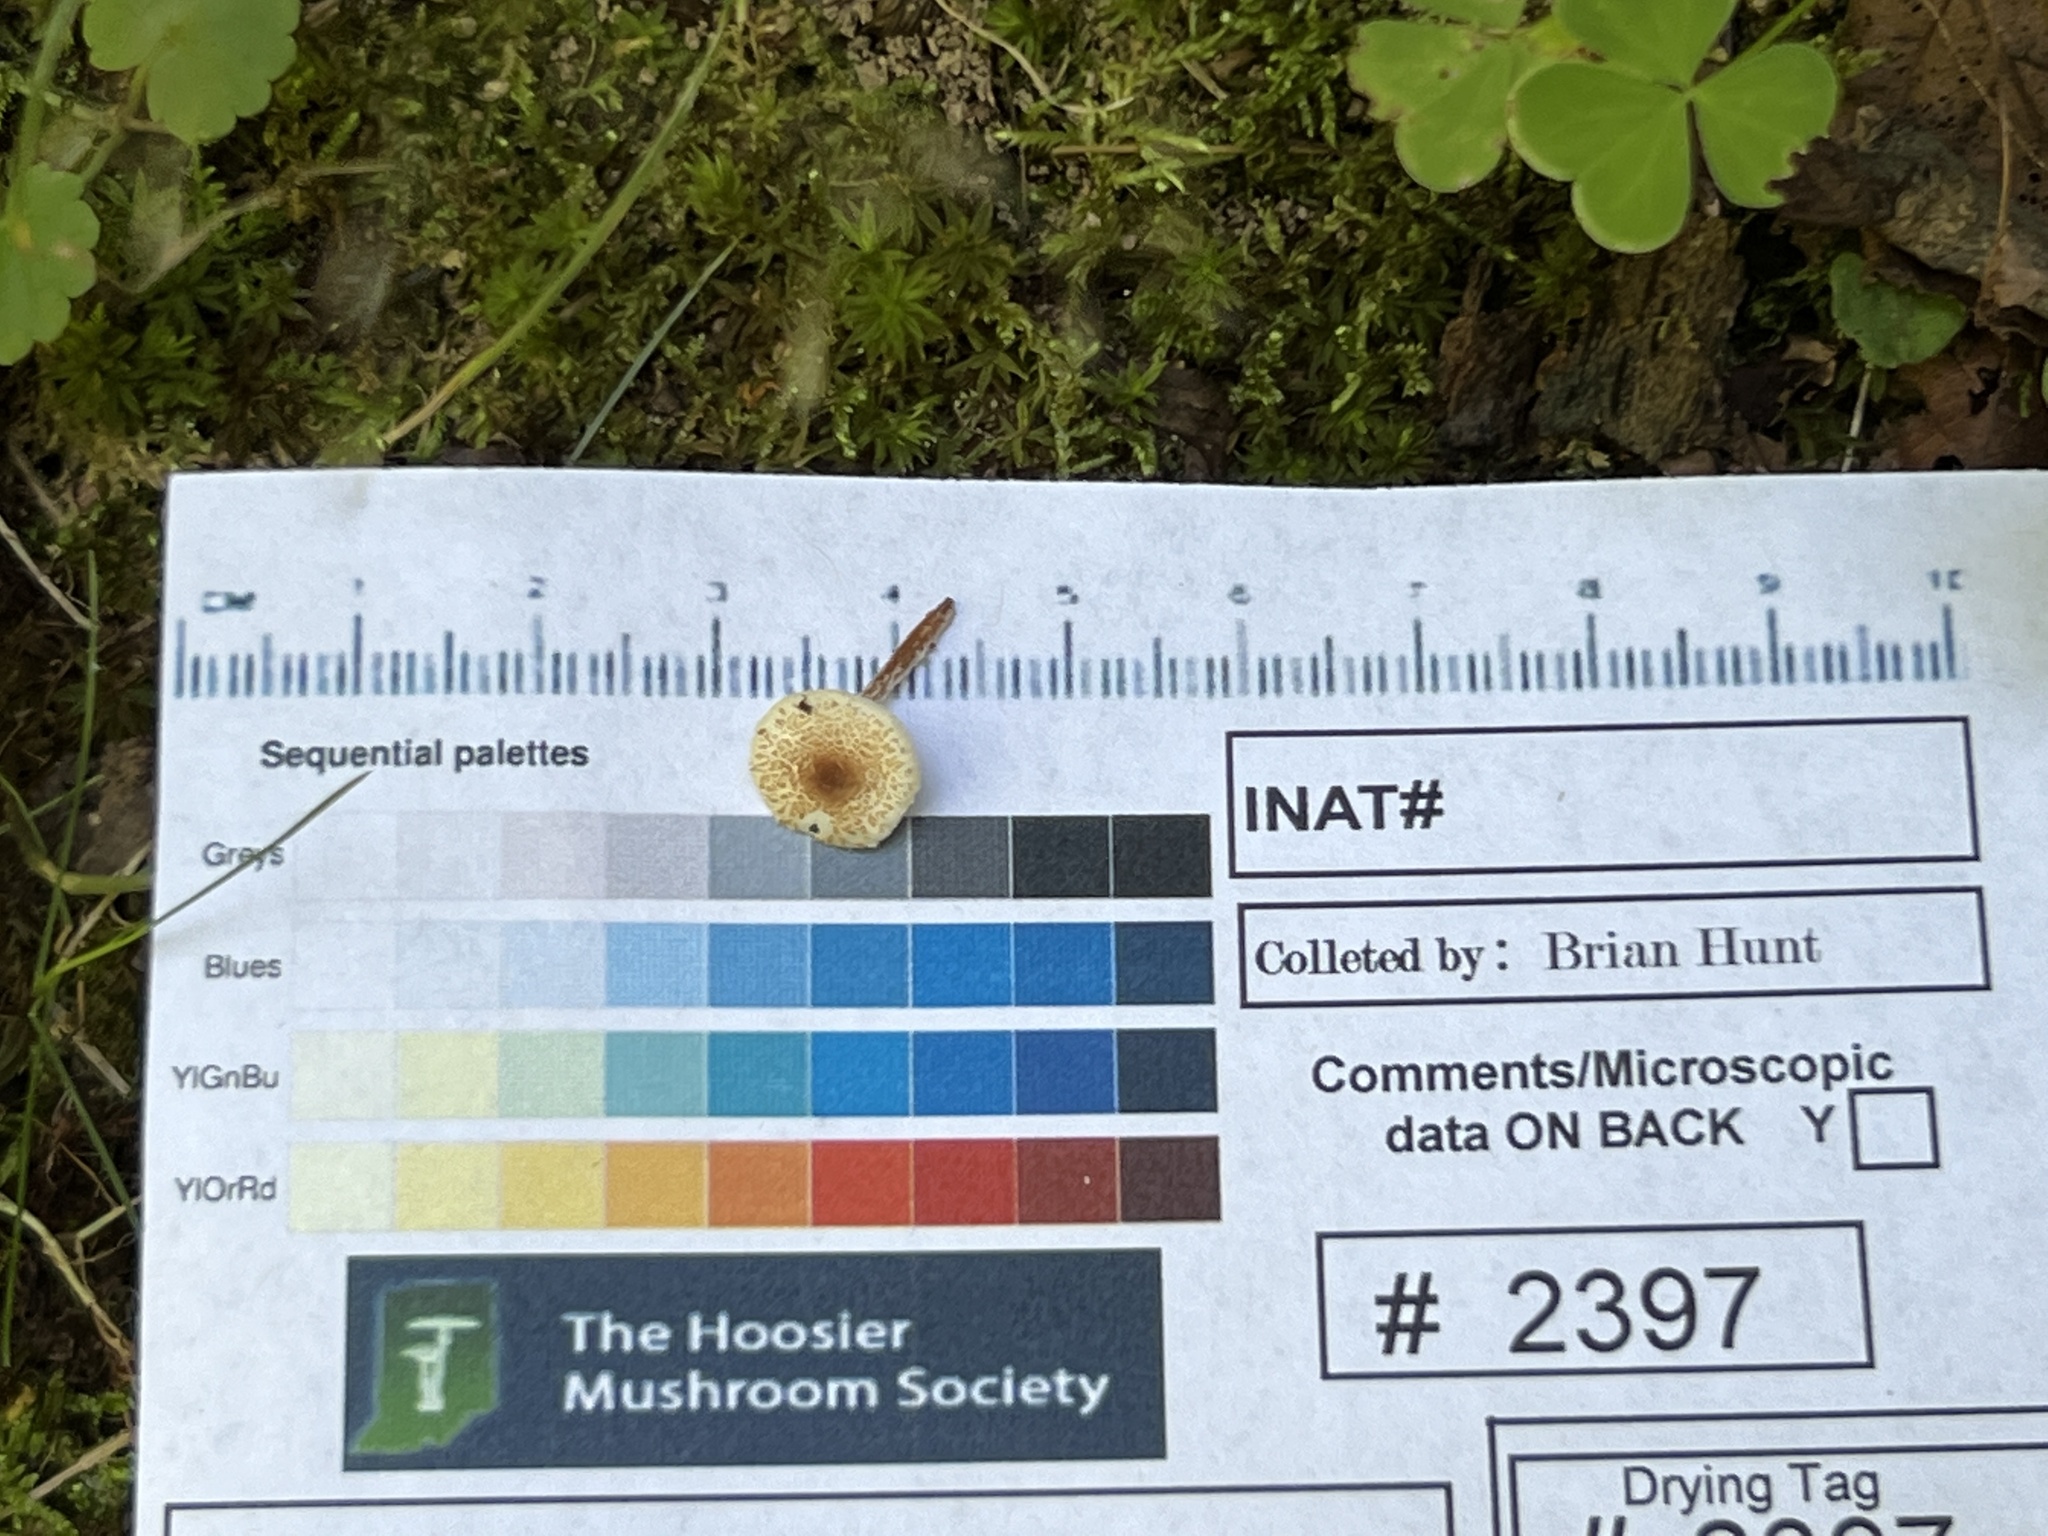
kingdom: Fungi
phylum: Basidiomycota
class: Agaricomycetes
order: Agaricales
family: Agaricaceae
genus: Lepiota
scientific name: Lepiota echinella
